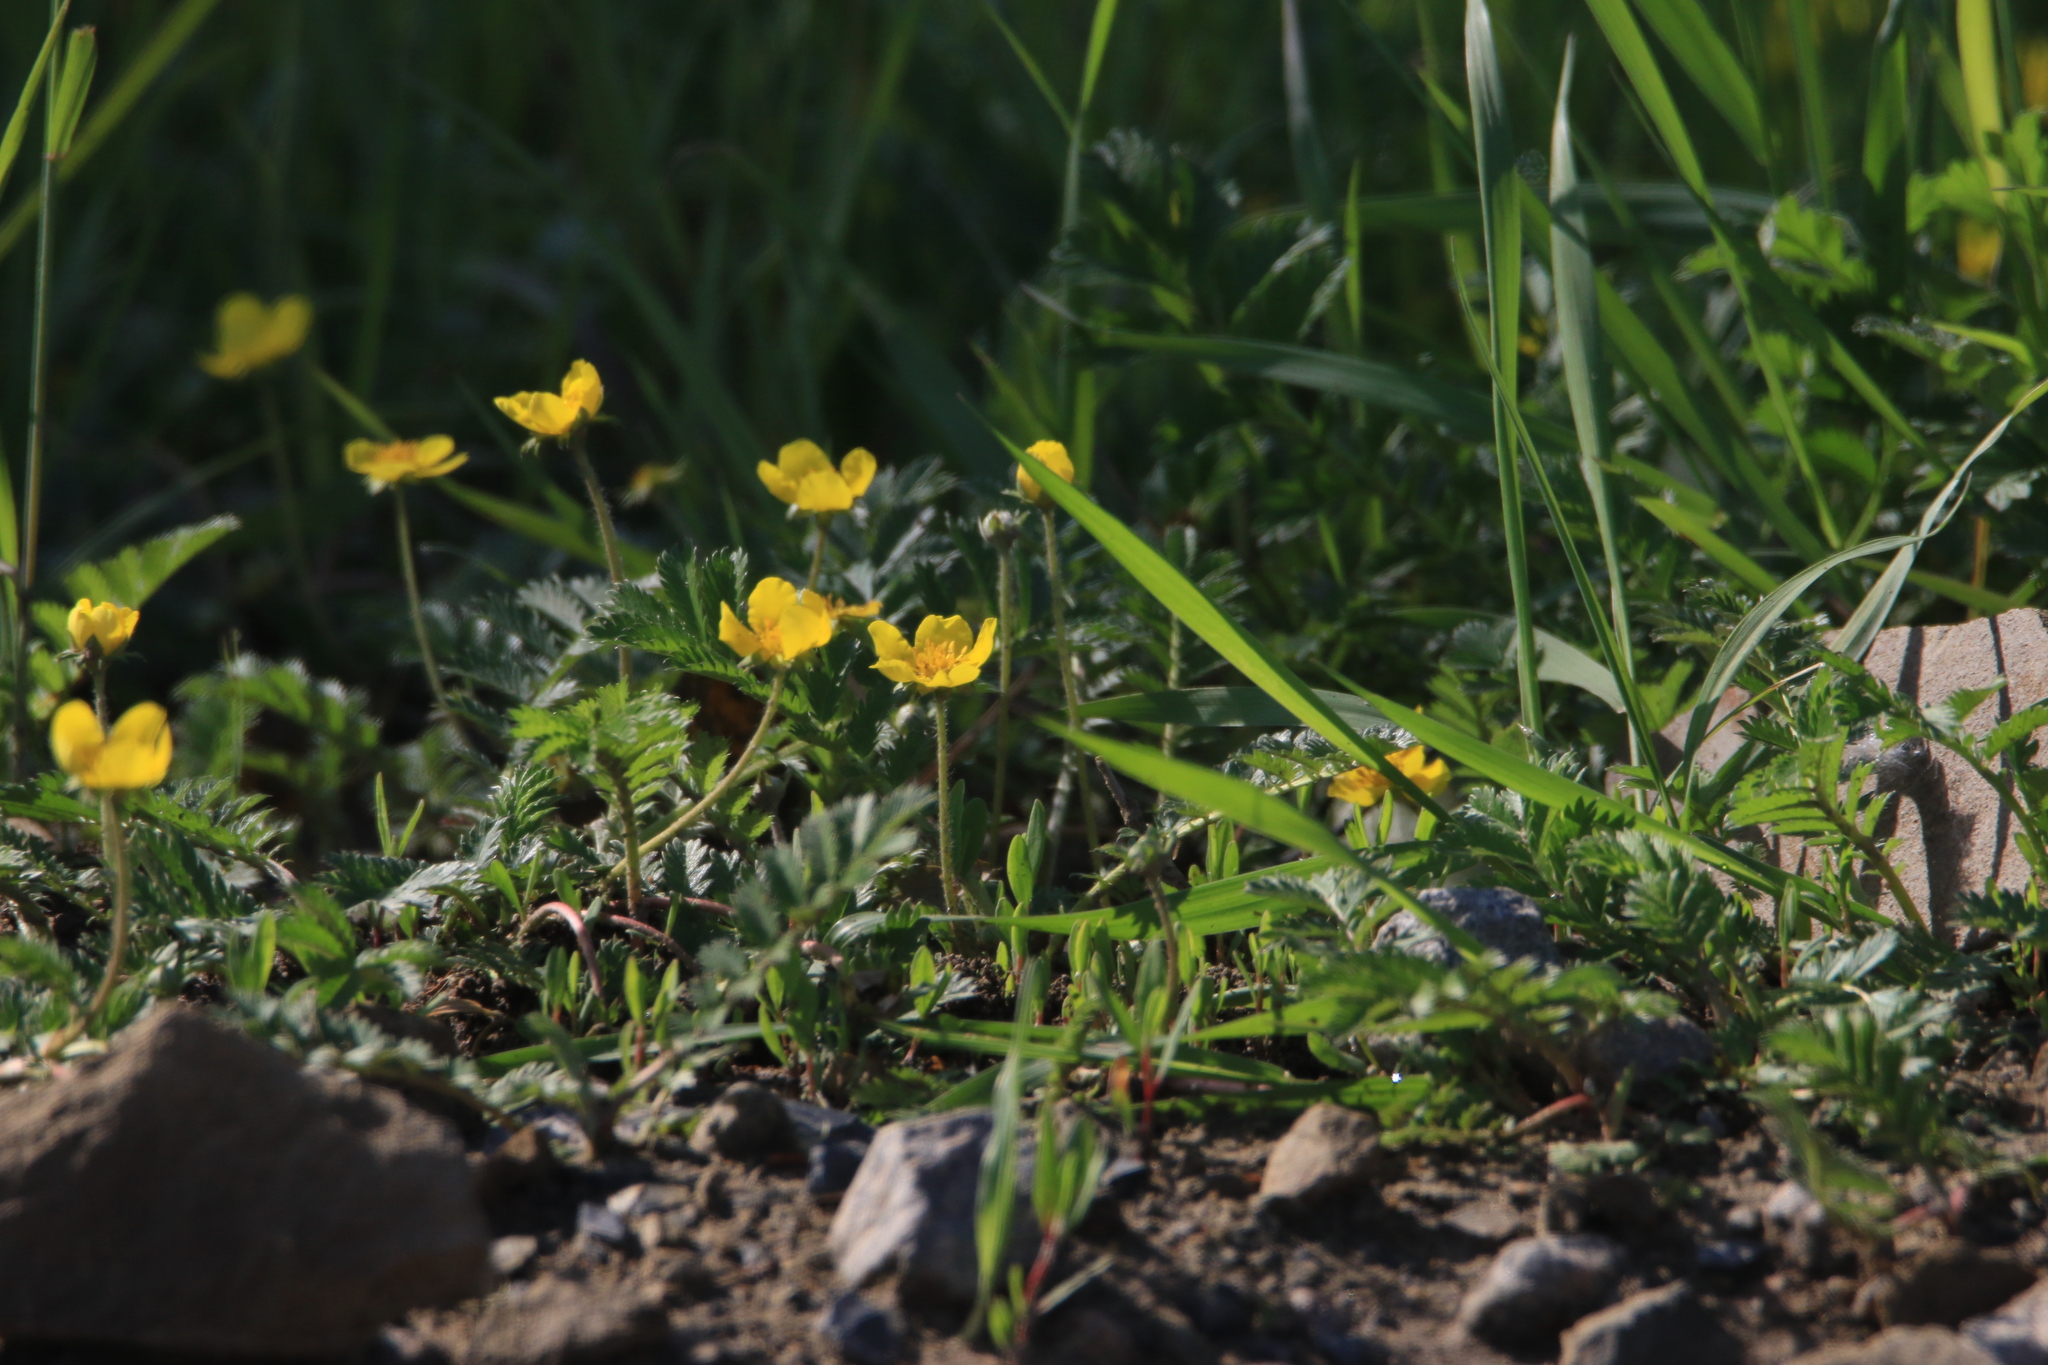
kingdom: Plantae
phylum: Tracheophyta
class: Magnoliopsida
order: Rosales
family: Rosaceae
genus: Argentina
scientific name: Argentina anserina
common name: Common silverweed
